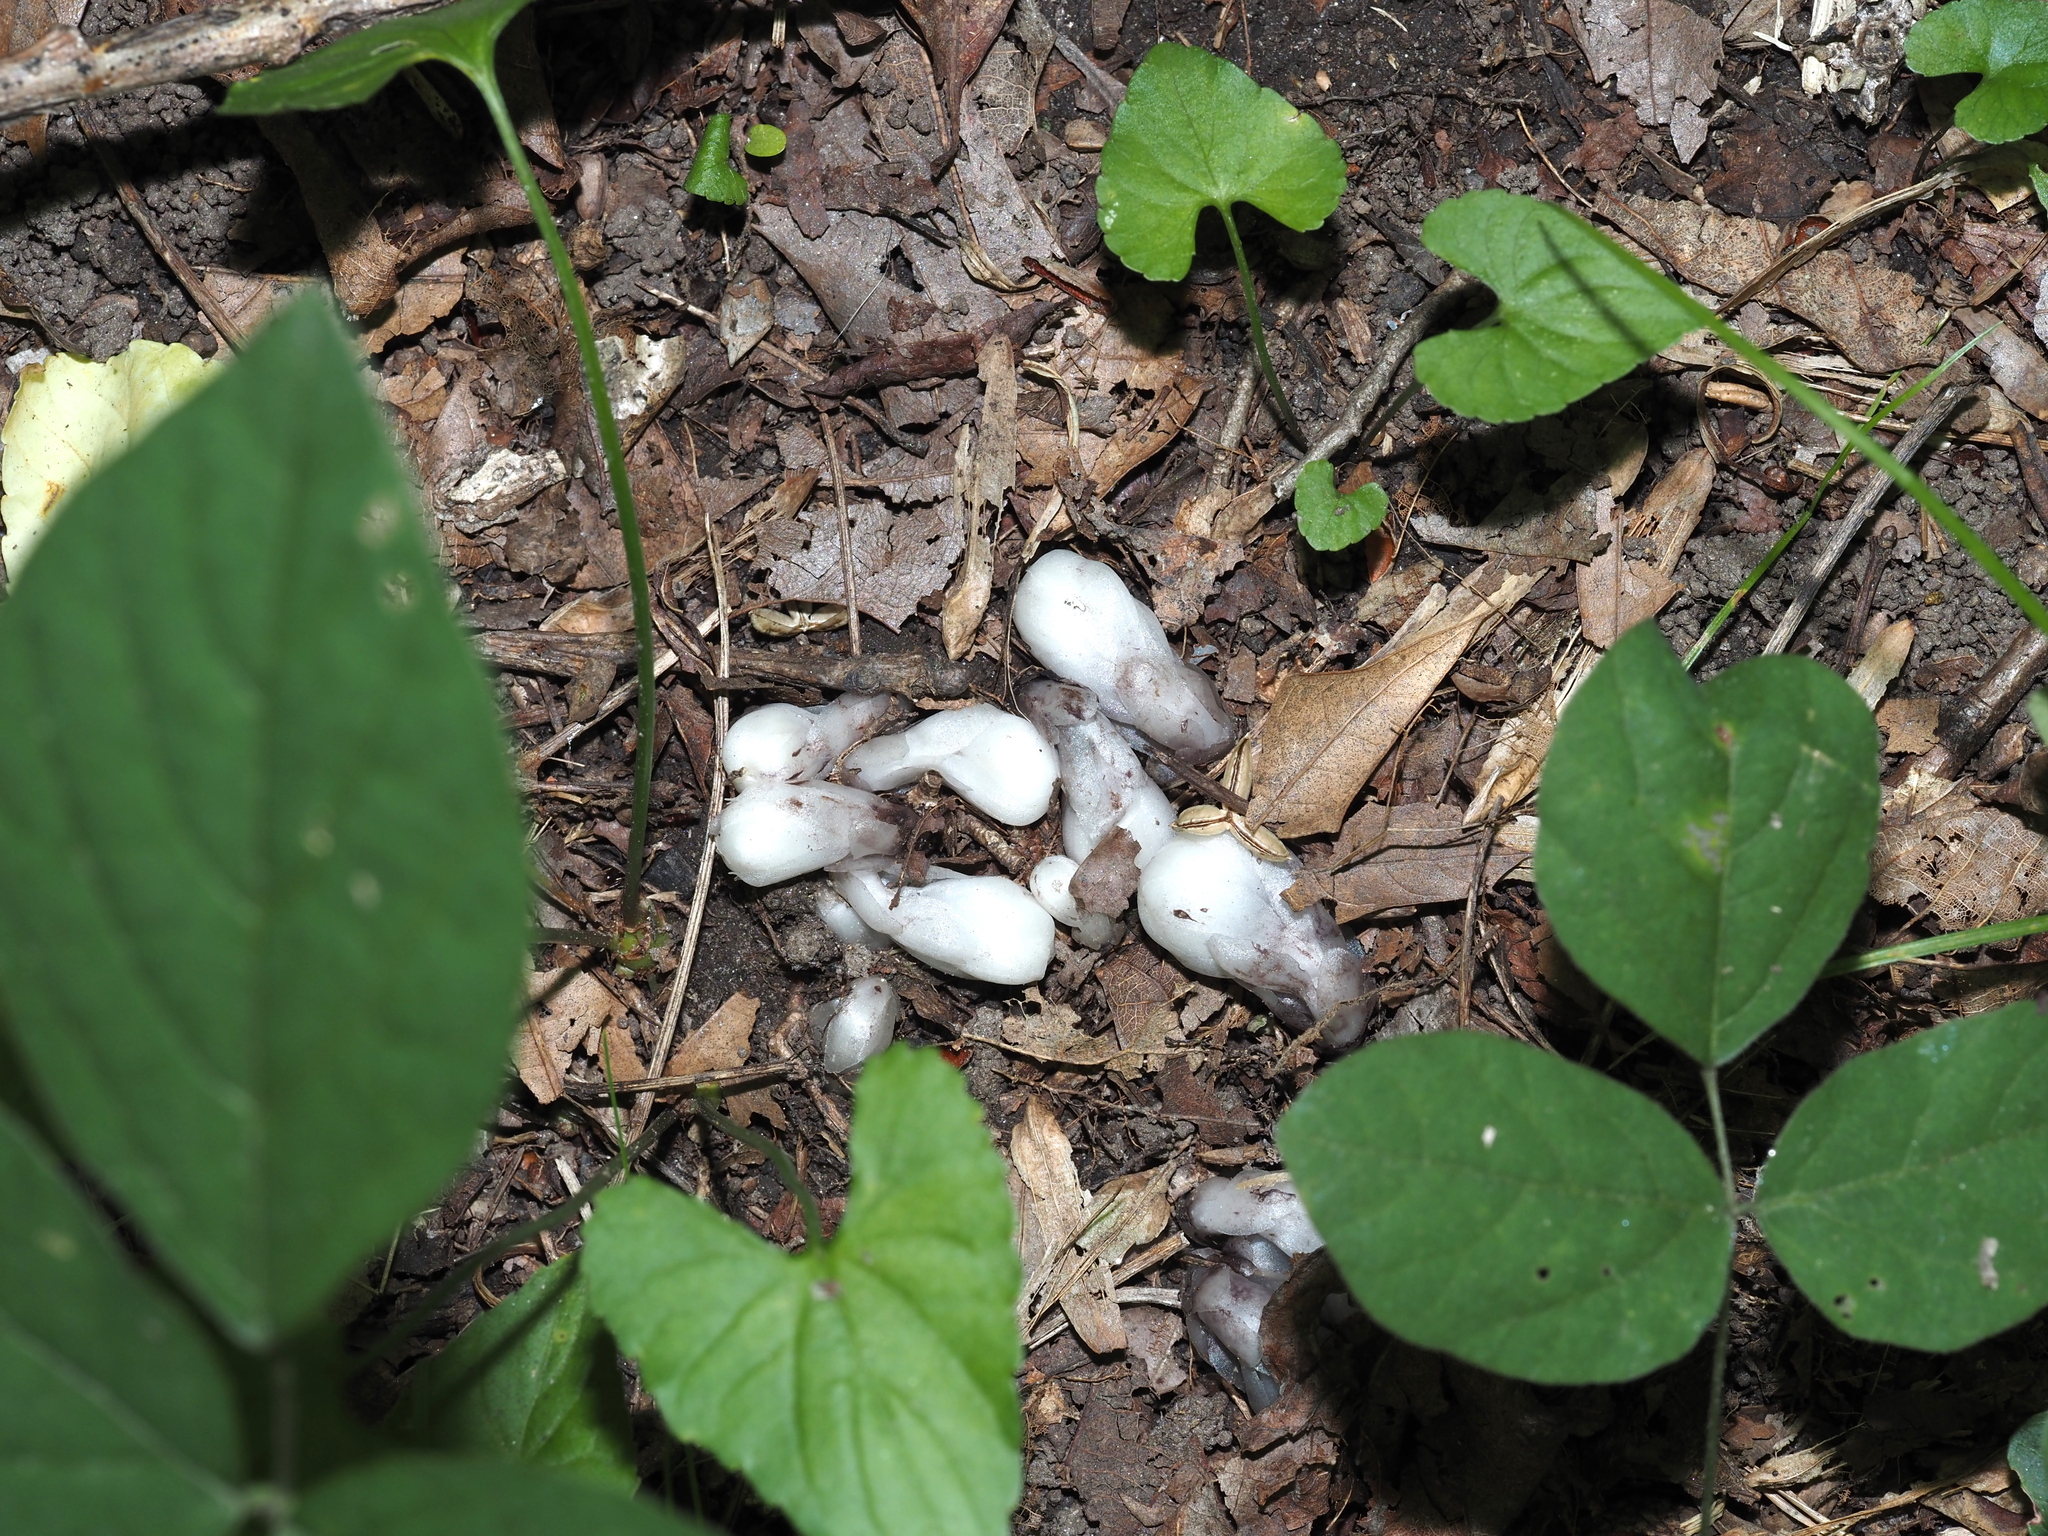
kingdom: Plantae
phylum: Tracheophyta
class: Magnoliopsida
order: Ericales
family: Ericaceae
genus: Monotropa
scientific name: Monotropa uniflora
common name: Convulsion root
